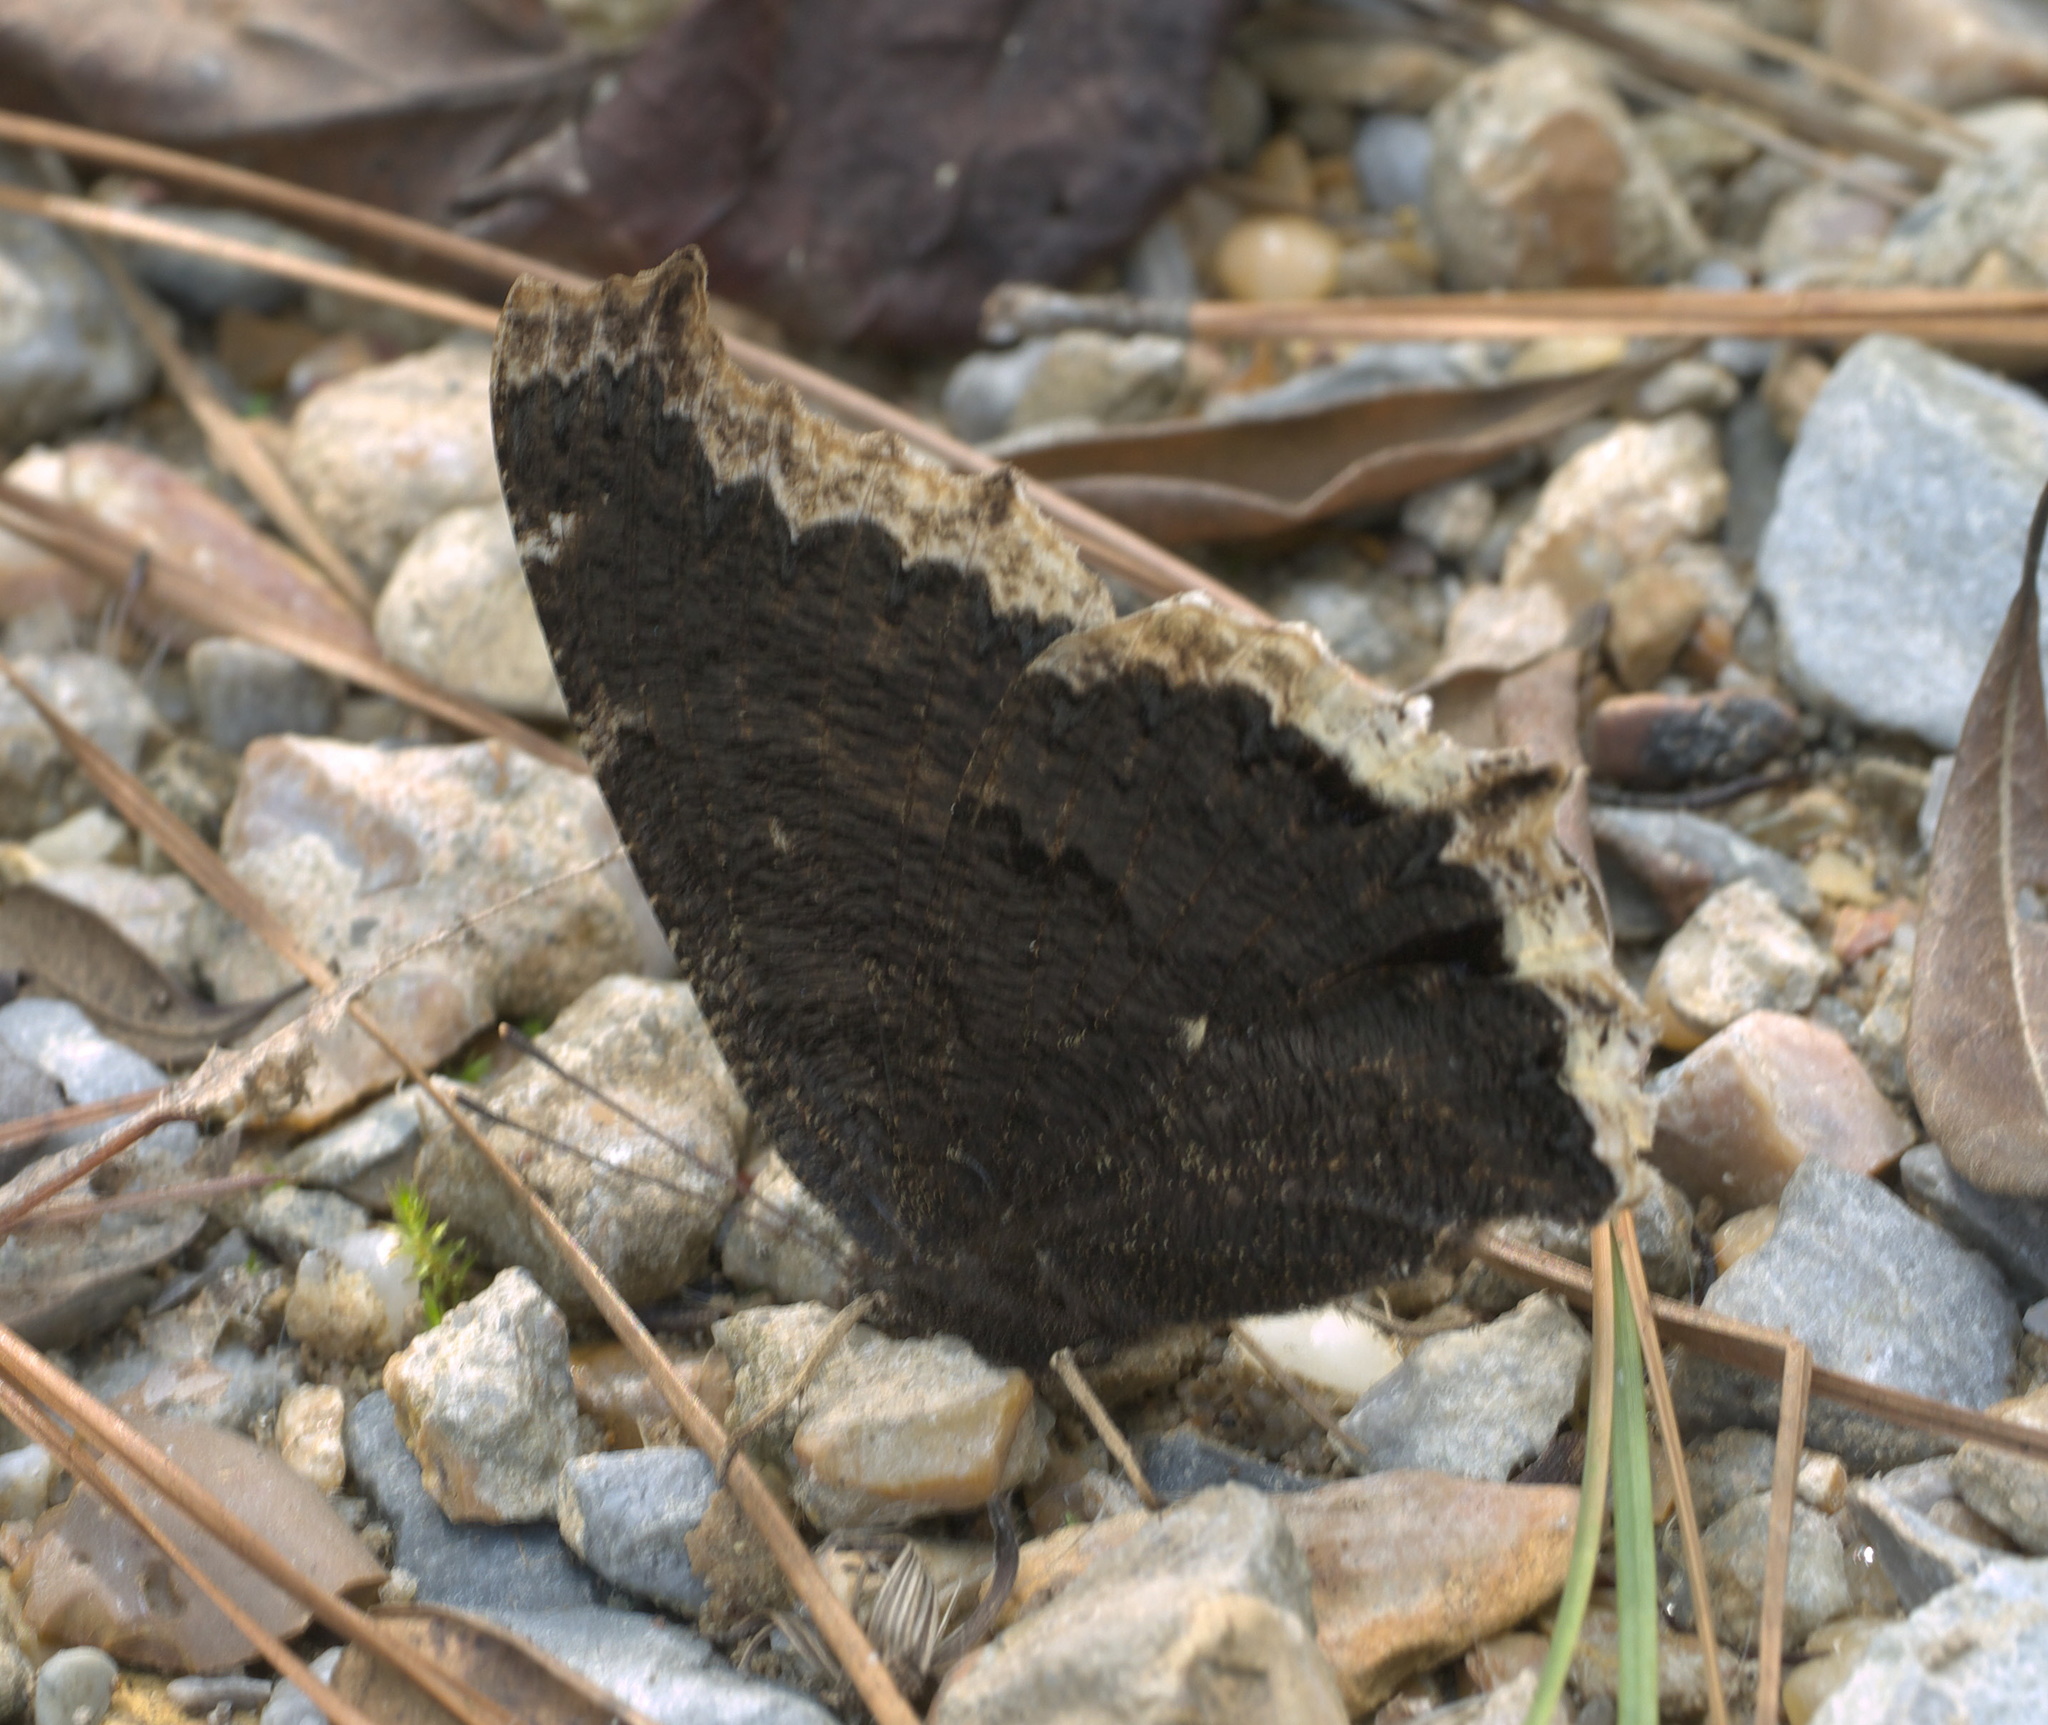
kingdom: Animalia
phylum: Arthropoda
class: Insecta
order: Lepidoptera
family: Nymphalidae
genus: Nymphalis
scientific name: Nymphalis antiopa
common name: Camberwell beauty
